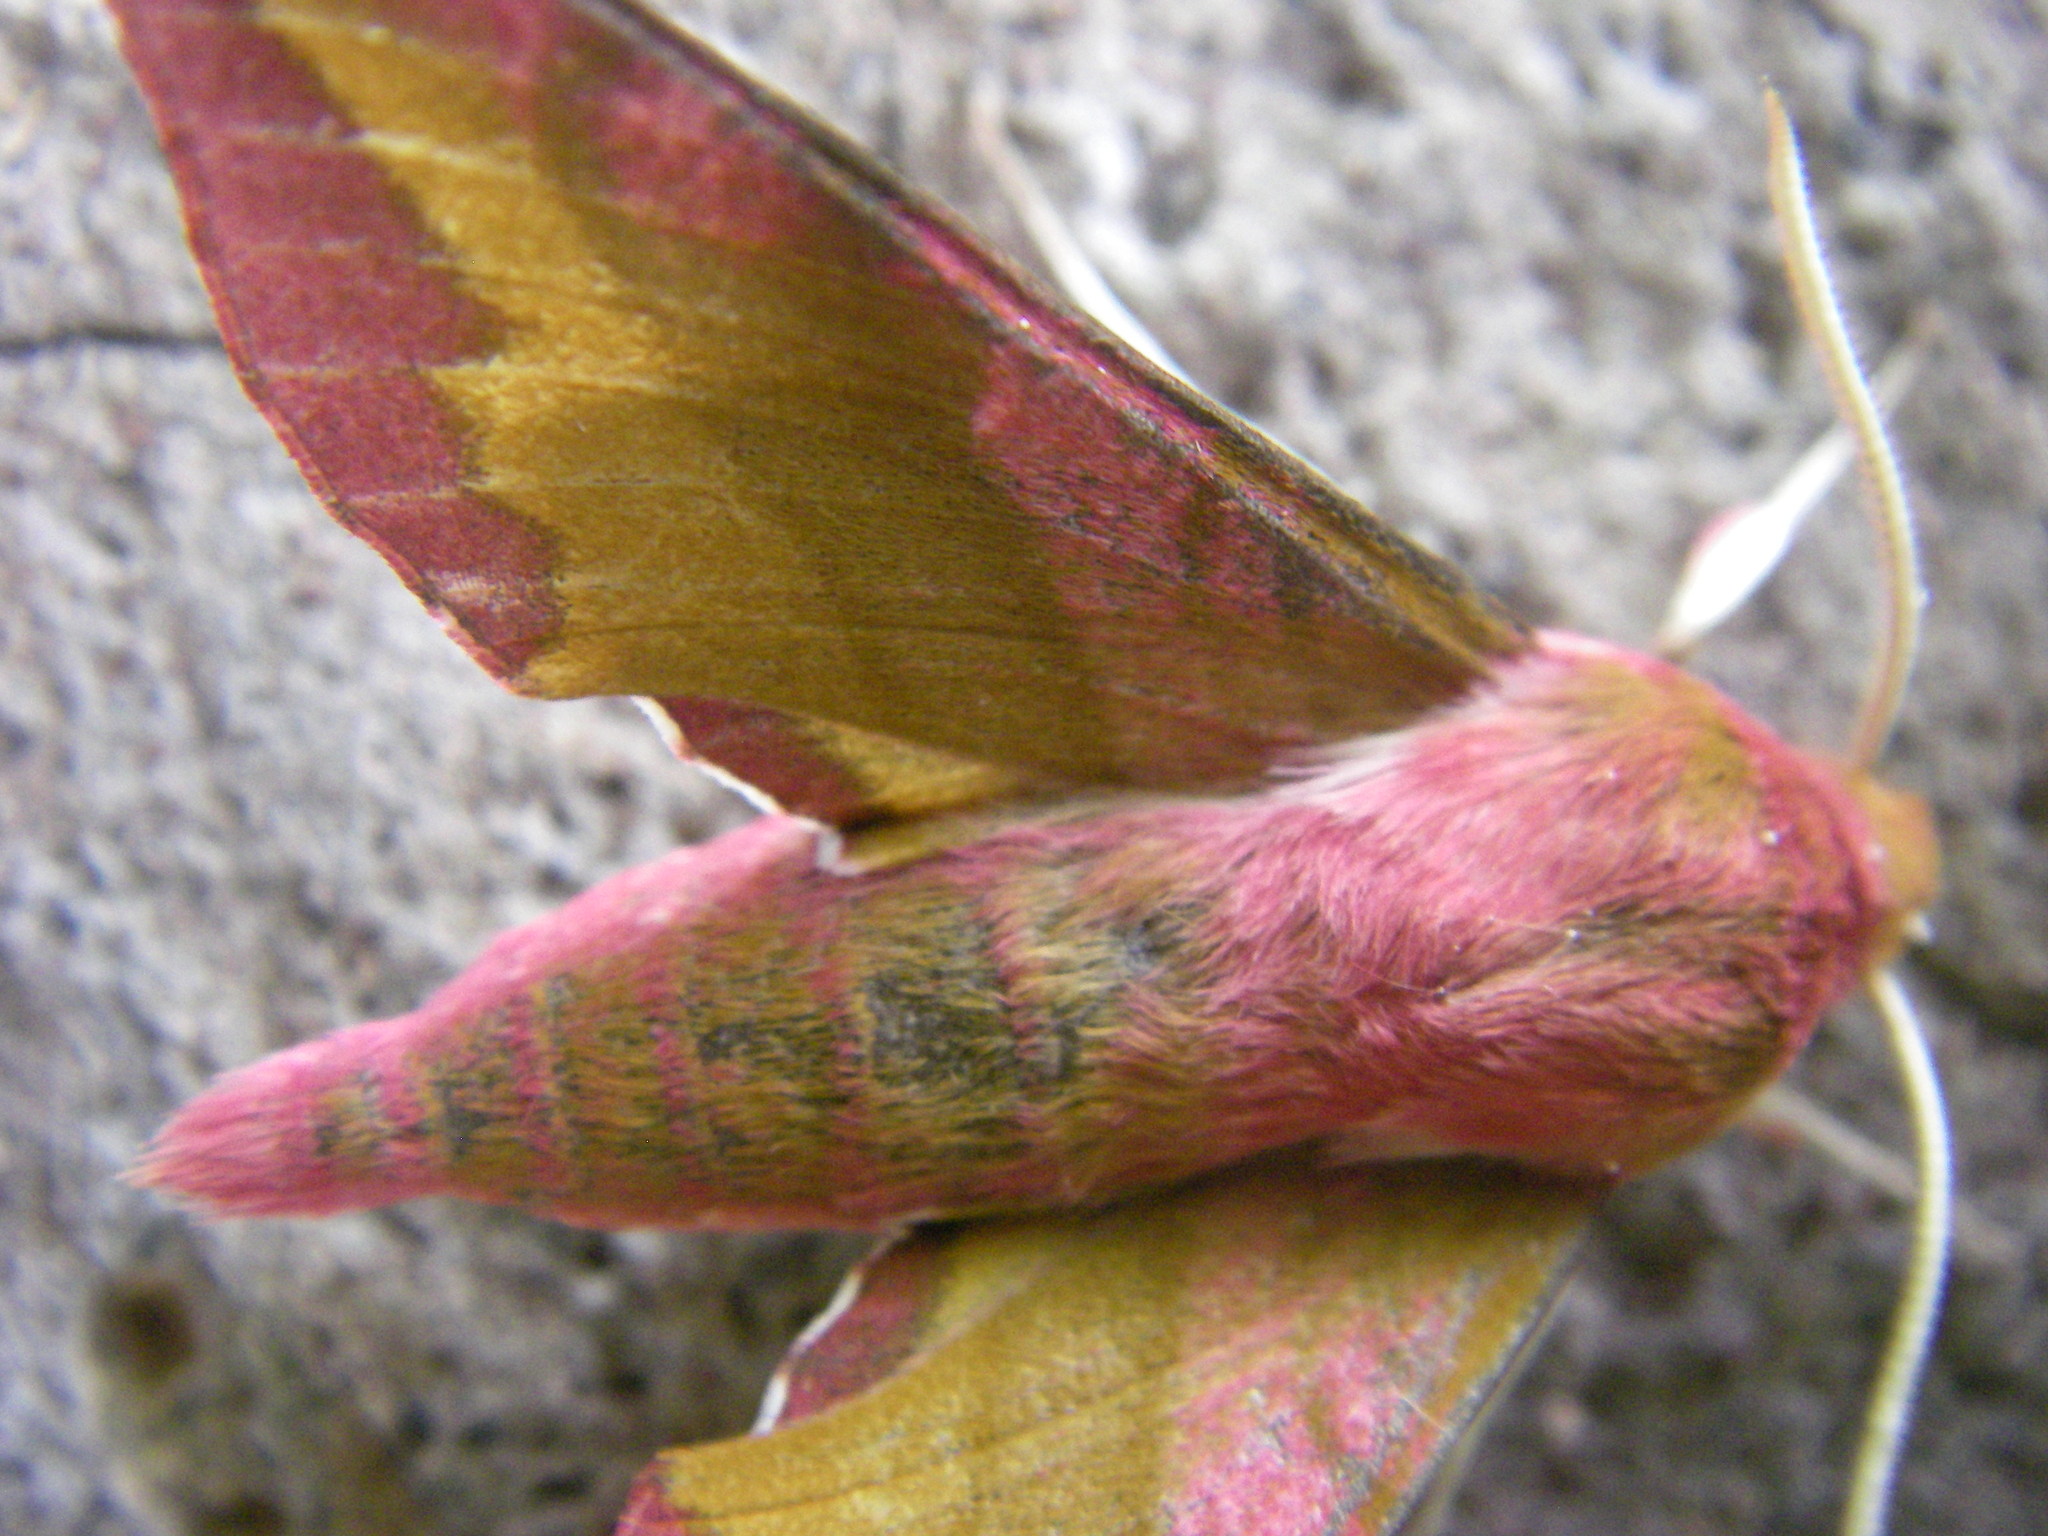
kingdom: Animalia
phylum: Arthropoda
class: Insecta
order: Lepidoptera
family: Sphingidae
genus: Deilephila
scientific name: Deilephila porcellus
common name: Small elephant hawk-moth
